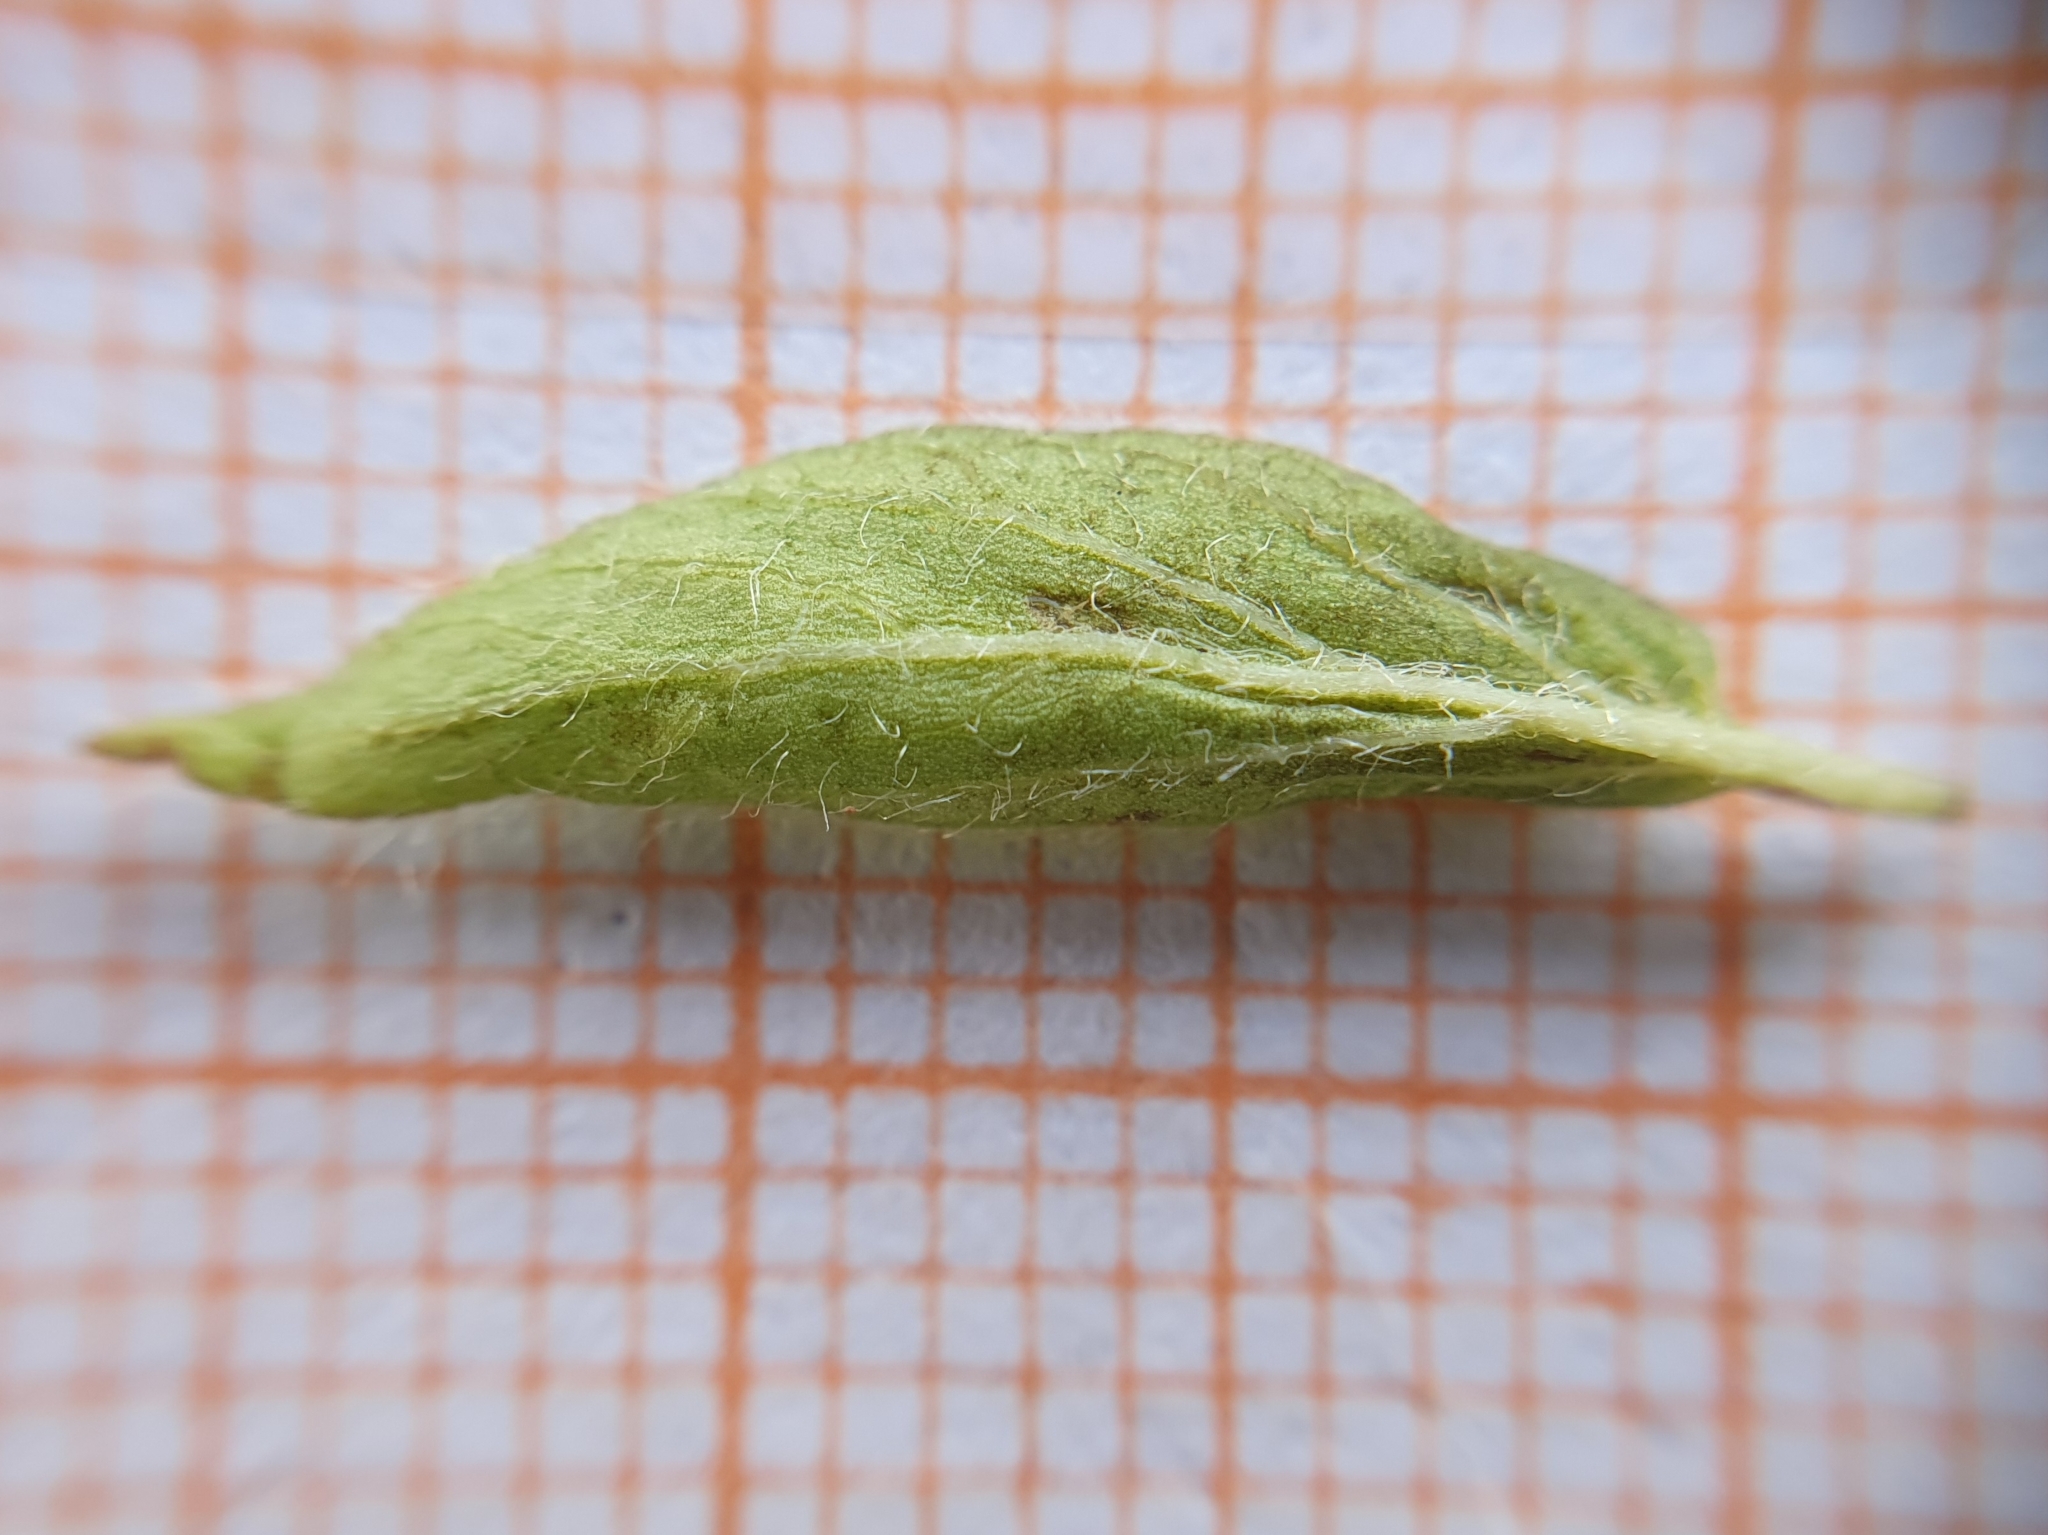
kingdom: Plantae
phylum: Tracheophyta
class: Magnoliopsida
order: Solanales
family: Convolvulaceae
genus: Convolvulus
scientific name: Convolvulus siculus
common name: Small blue-convolvulus
